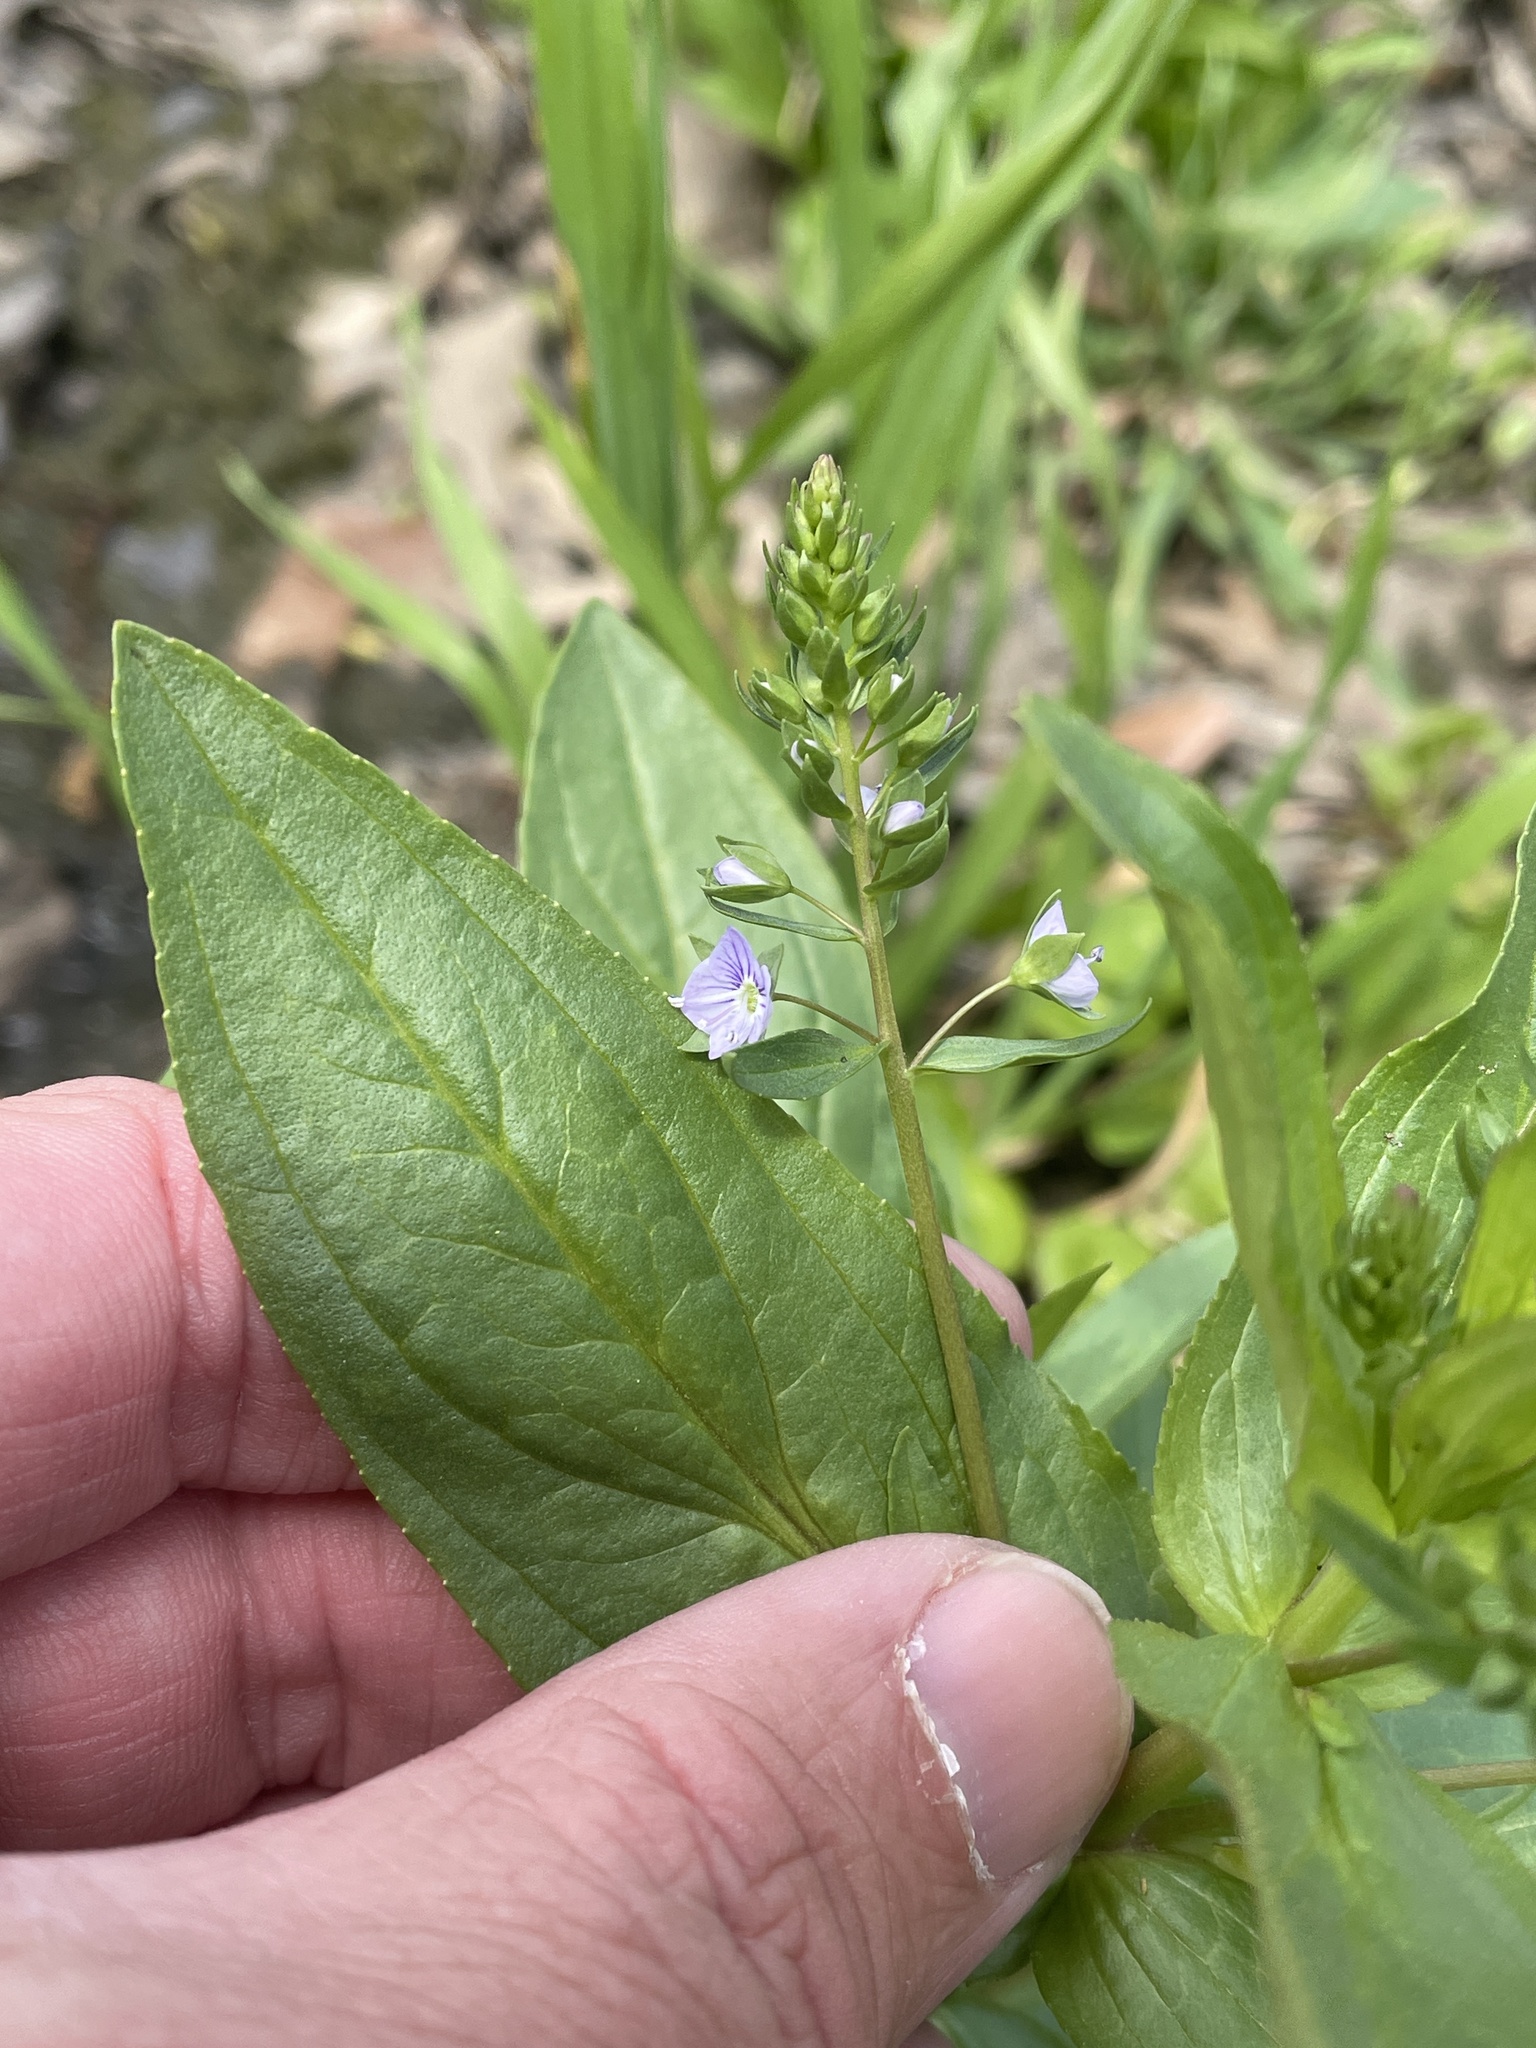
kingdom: Plantae
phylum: Tracheophyta
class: Magnoliopsida
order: Lamiales
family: Plantaginaceae
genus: Veronica
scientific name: Veronica anagallis-aquatica
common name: Water speedwell
